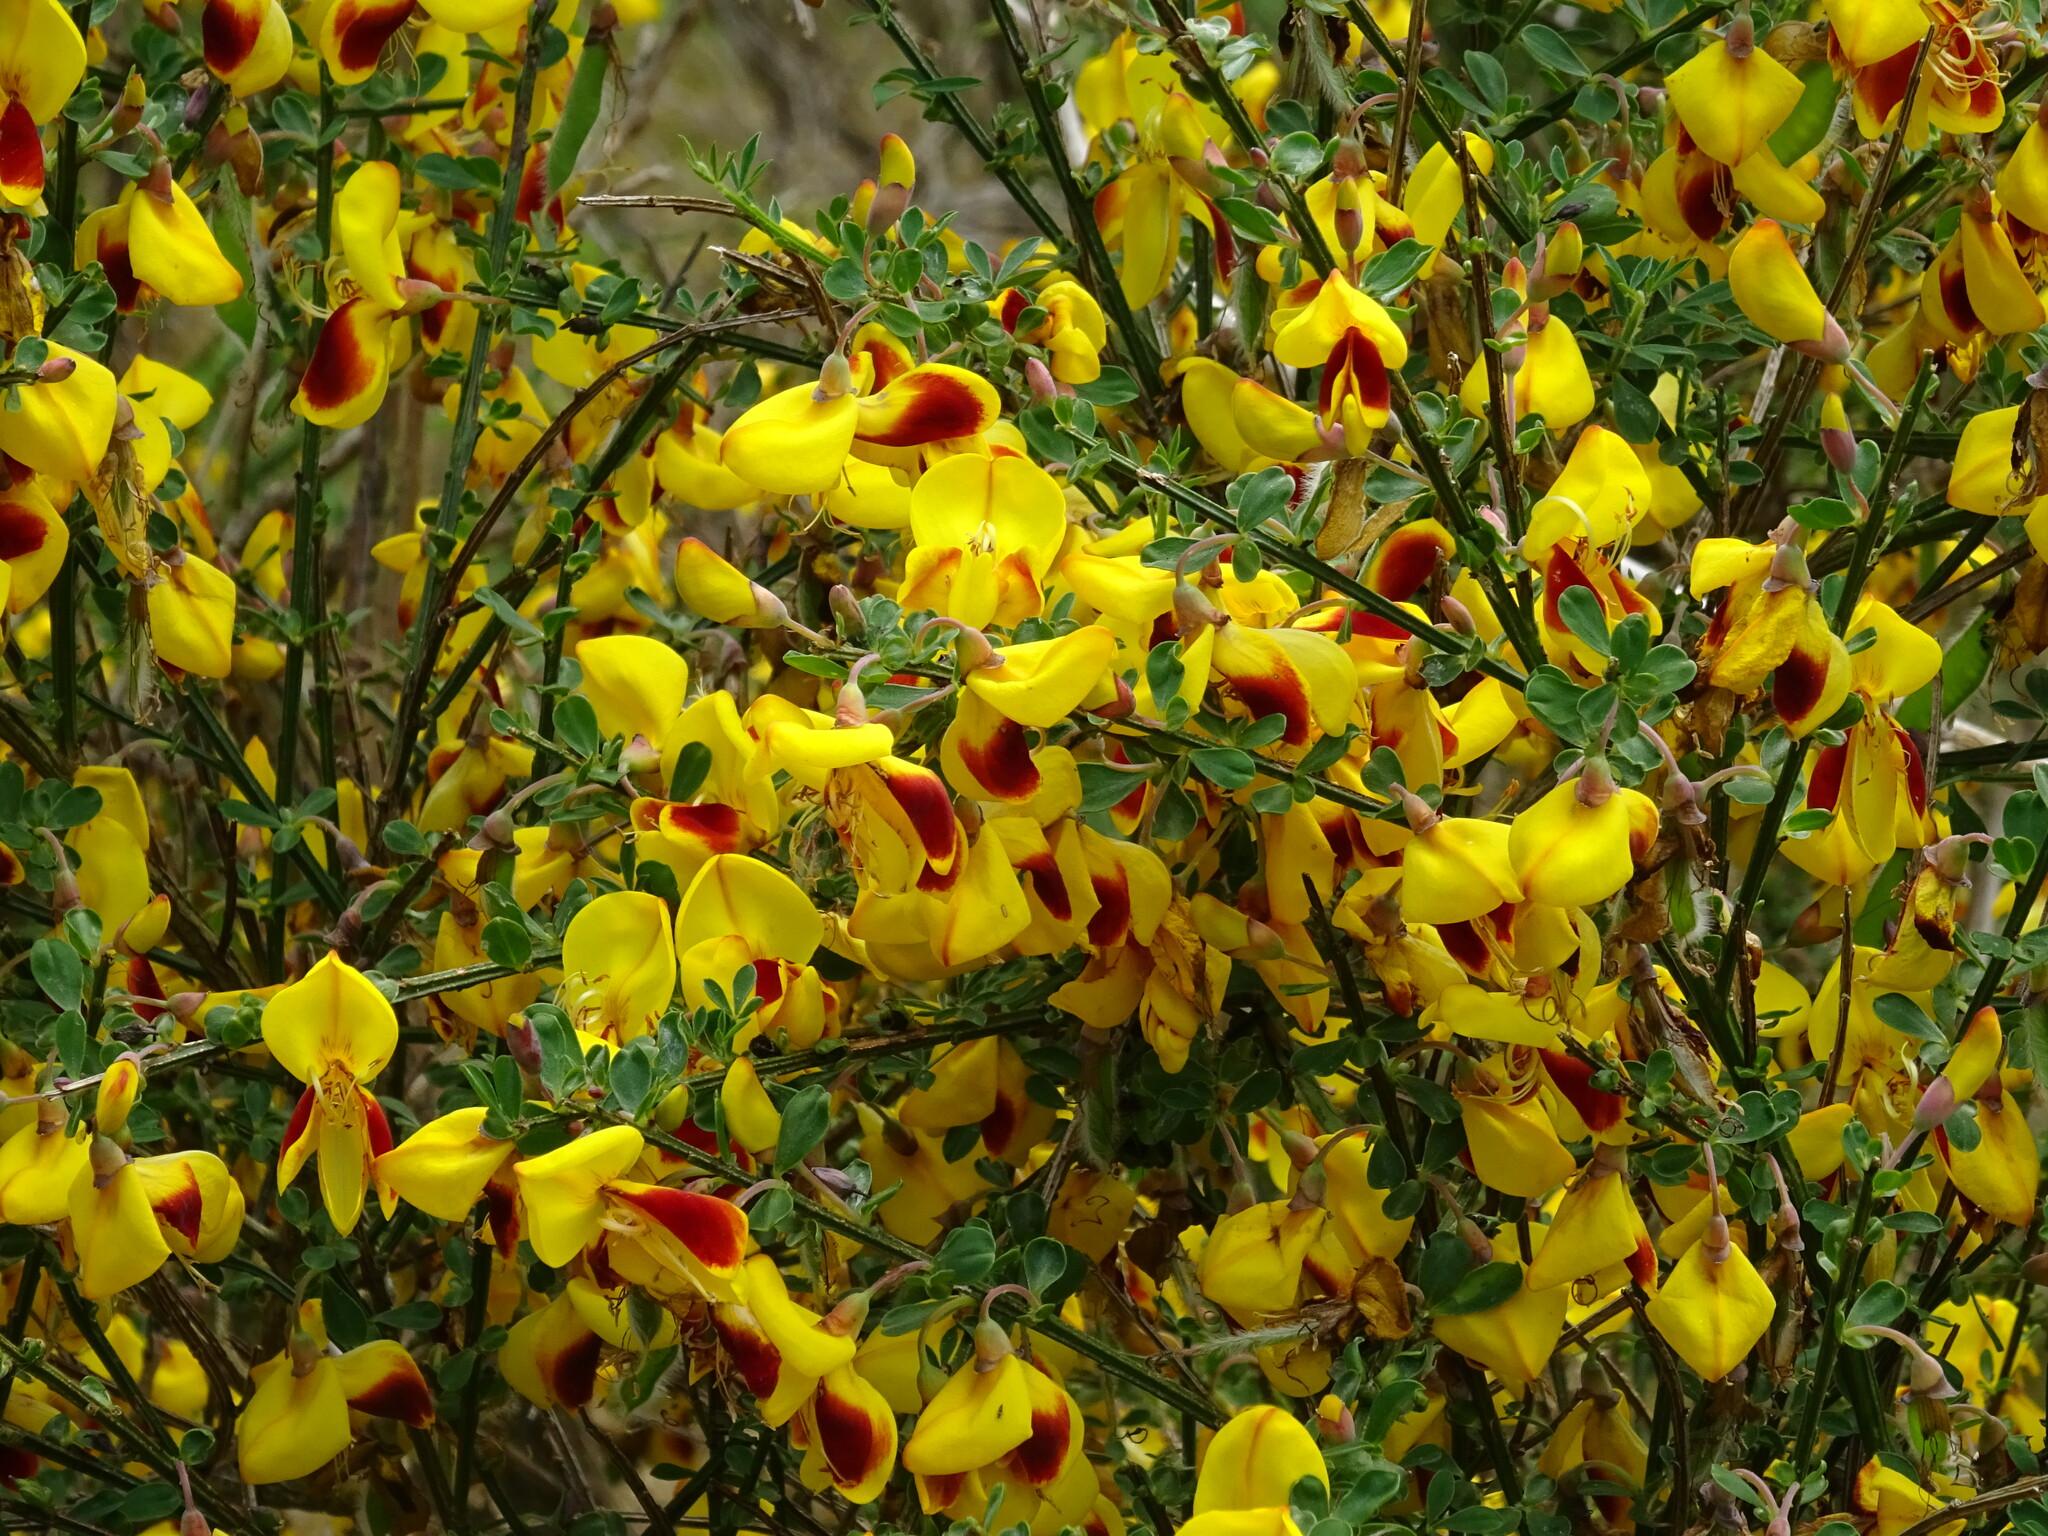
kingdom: Plantae
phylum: Tracheophyta
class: Magnoliopsida
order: Fabales
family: Fabaceae
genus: Cytisus
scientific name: Cytisus scoparius
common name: Scotch broom
